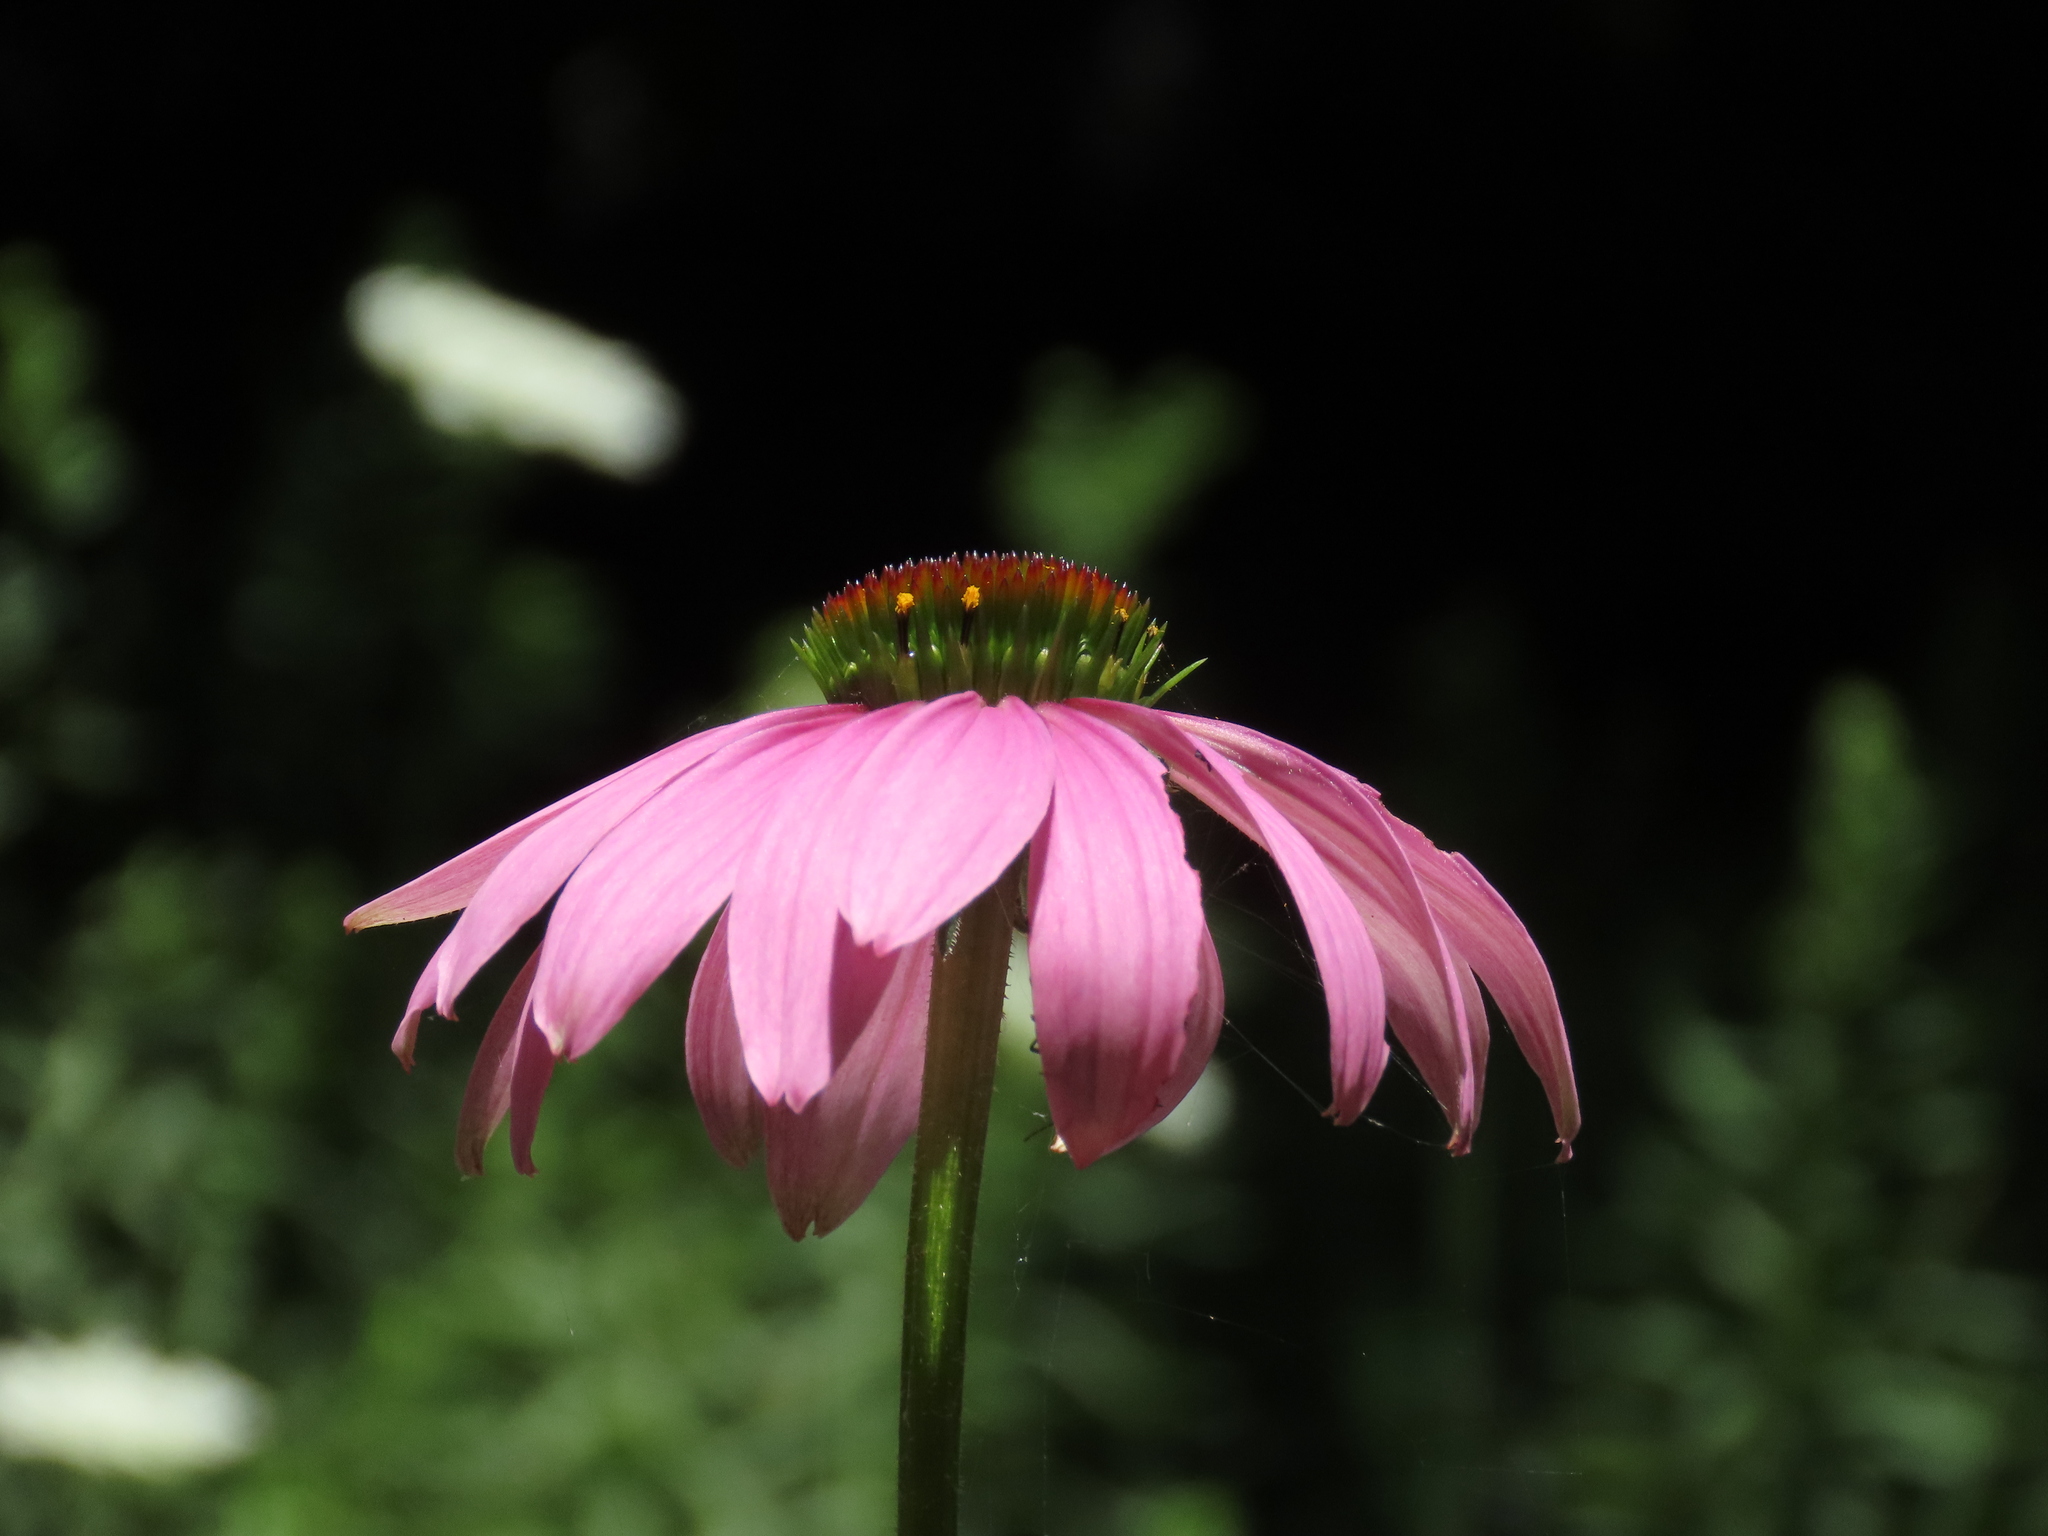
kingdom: Plantae
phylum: Tracheophyta
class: Magnoliopsida
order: Asterales
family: Asteraceae
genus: Echinacea
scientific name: Echinacea purpurea
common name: Broad-leaved purple coneflower
